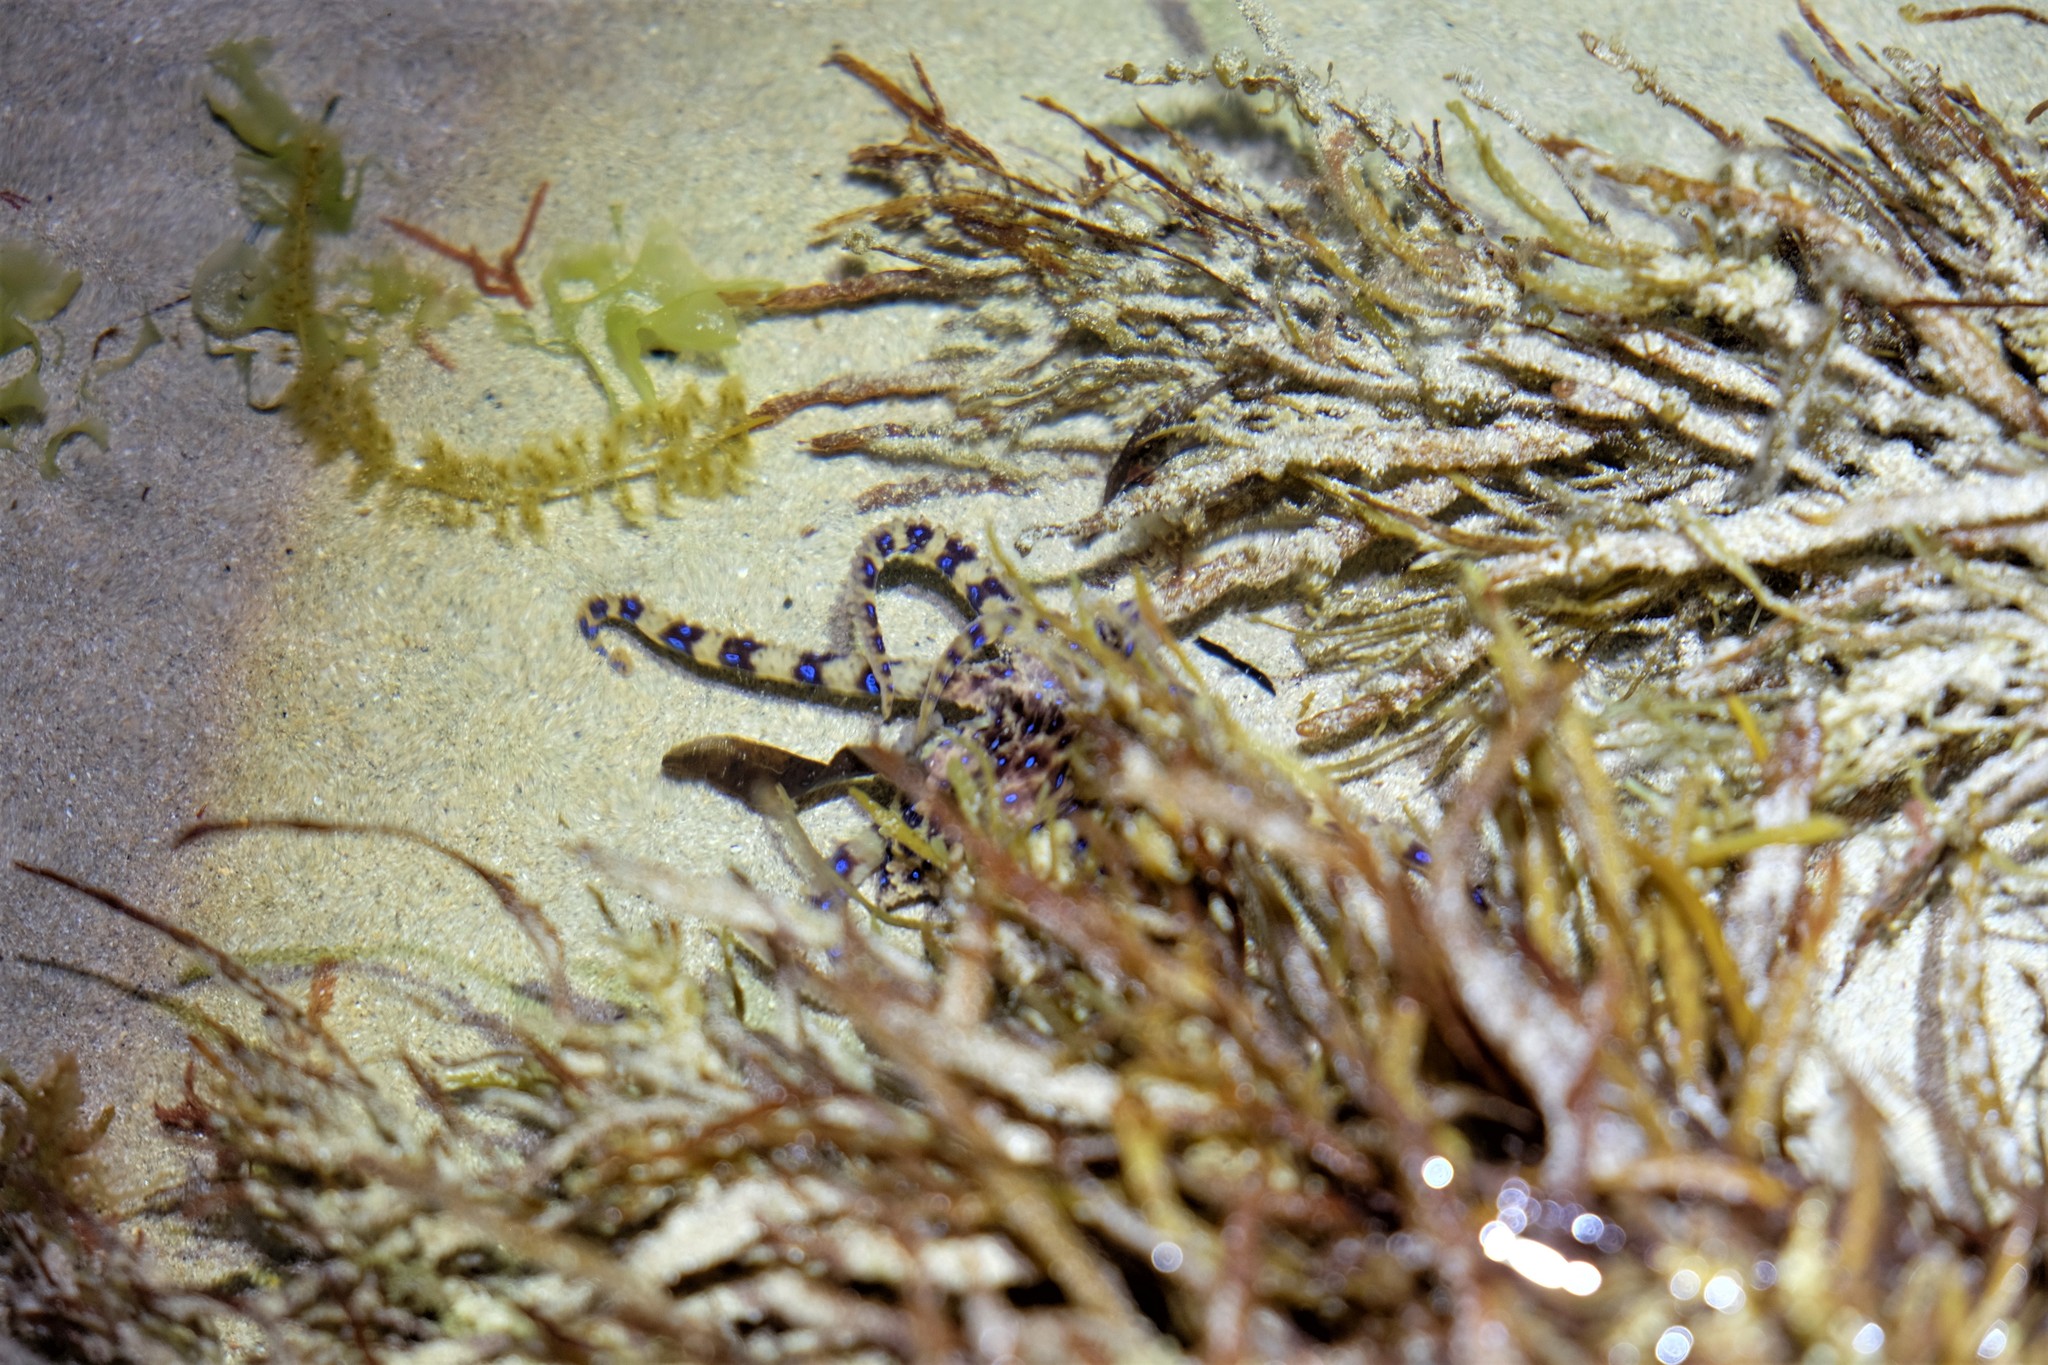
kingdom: Animalia
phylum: Mollusca
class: Cephalopoda
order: Octopoda
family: Octopodidae
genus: Hapalochlaena
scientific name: Hapalochlaena maculosa
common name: Blue-ringed octopus
